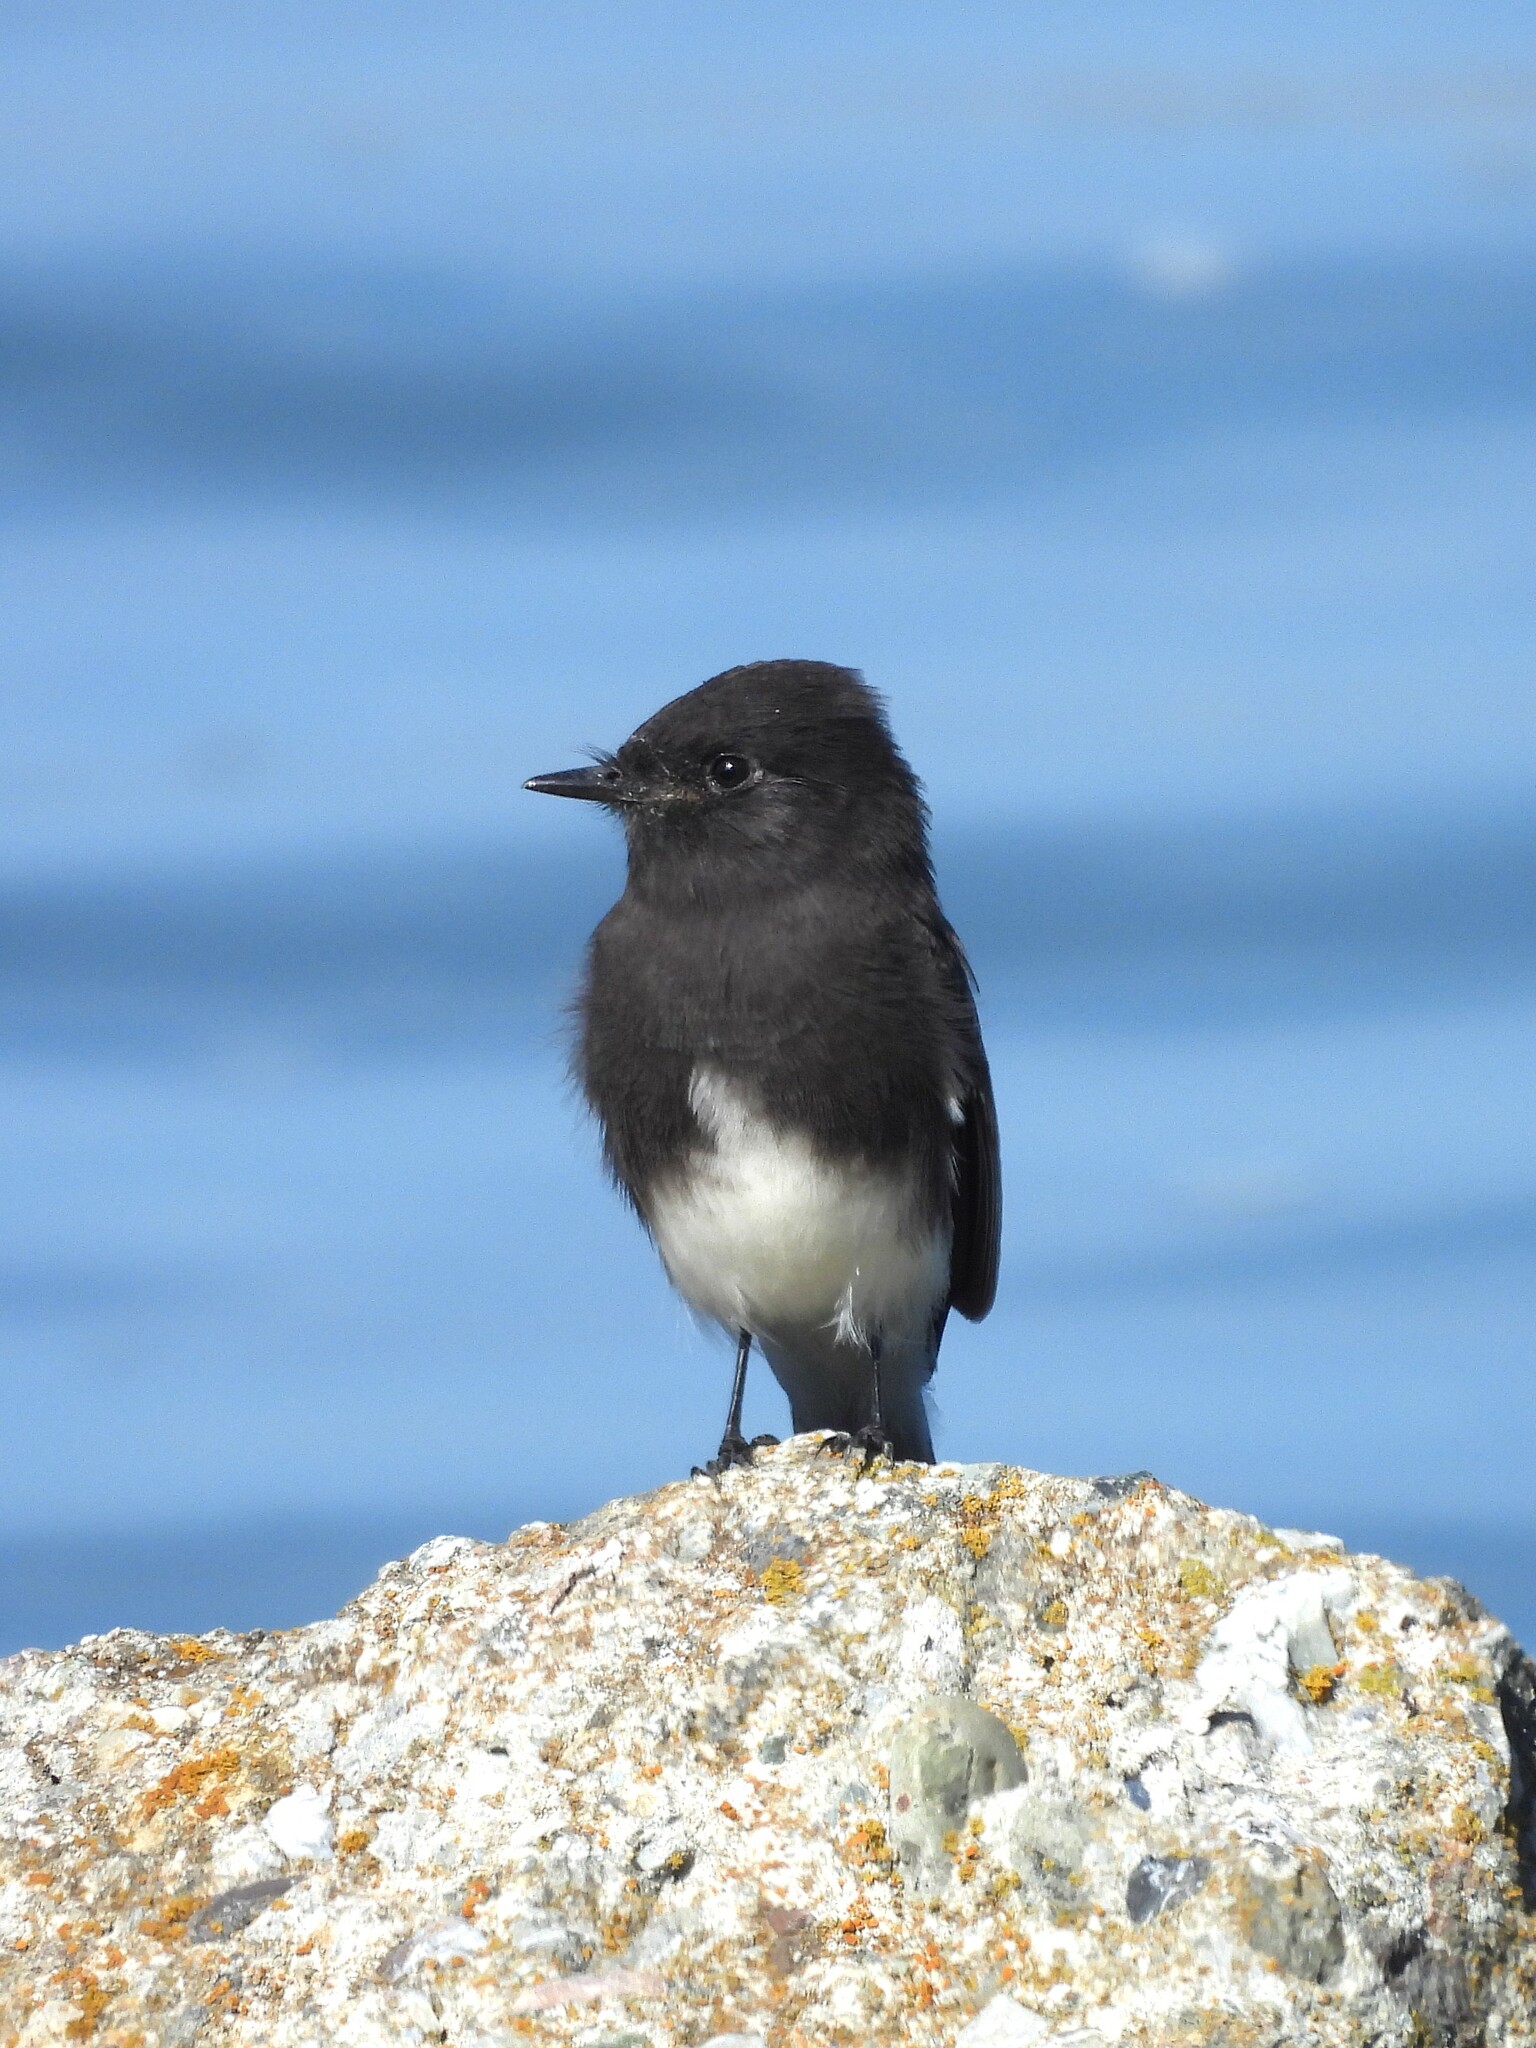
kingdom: Animalia
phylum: Chordata
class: Aves
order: Passeriformes
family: Tyrannidae
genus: Sayornis
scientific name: Sayornis nigricans
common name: Black phoebe
